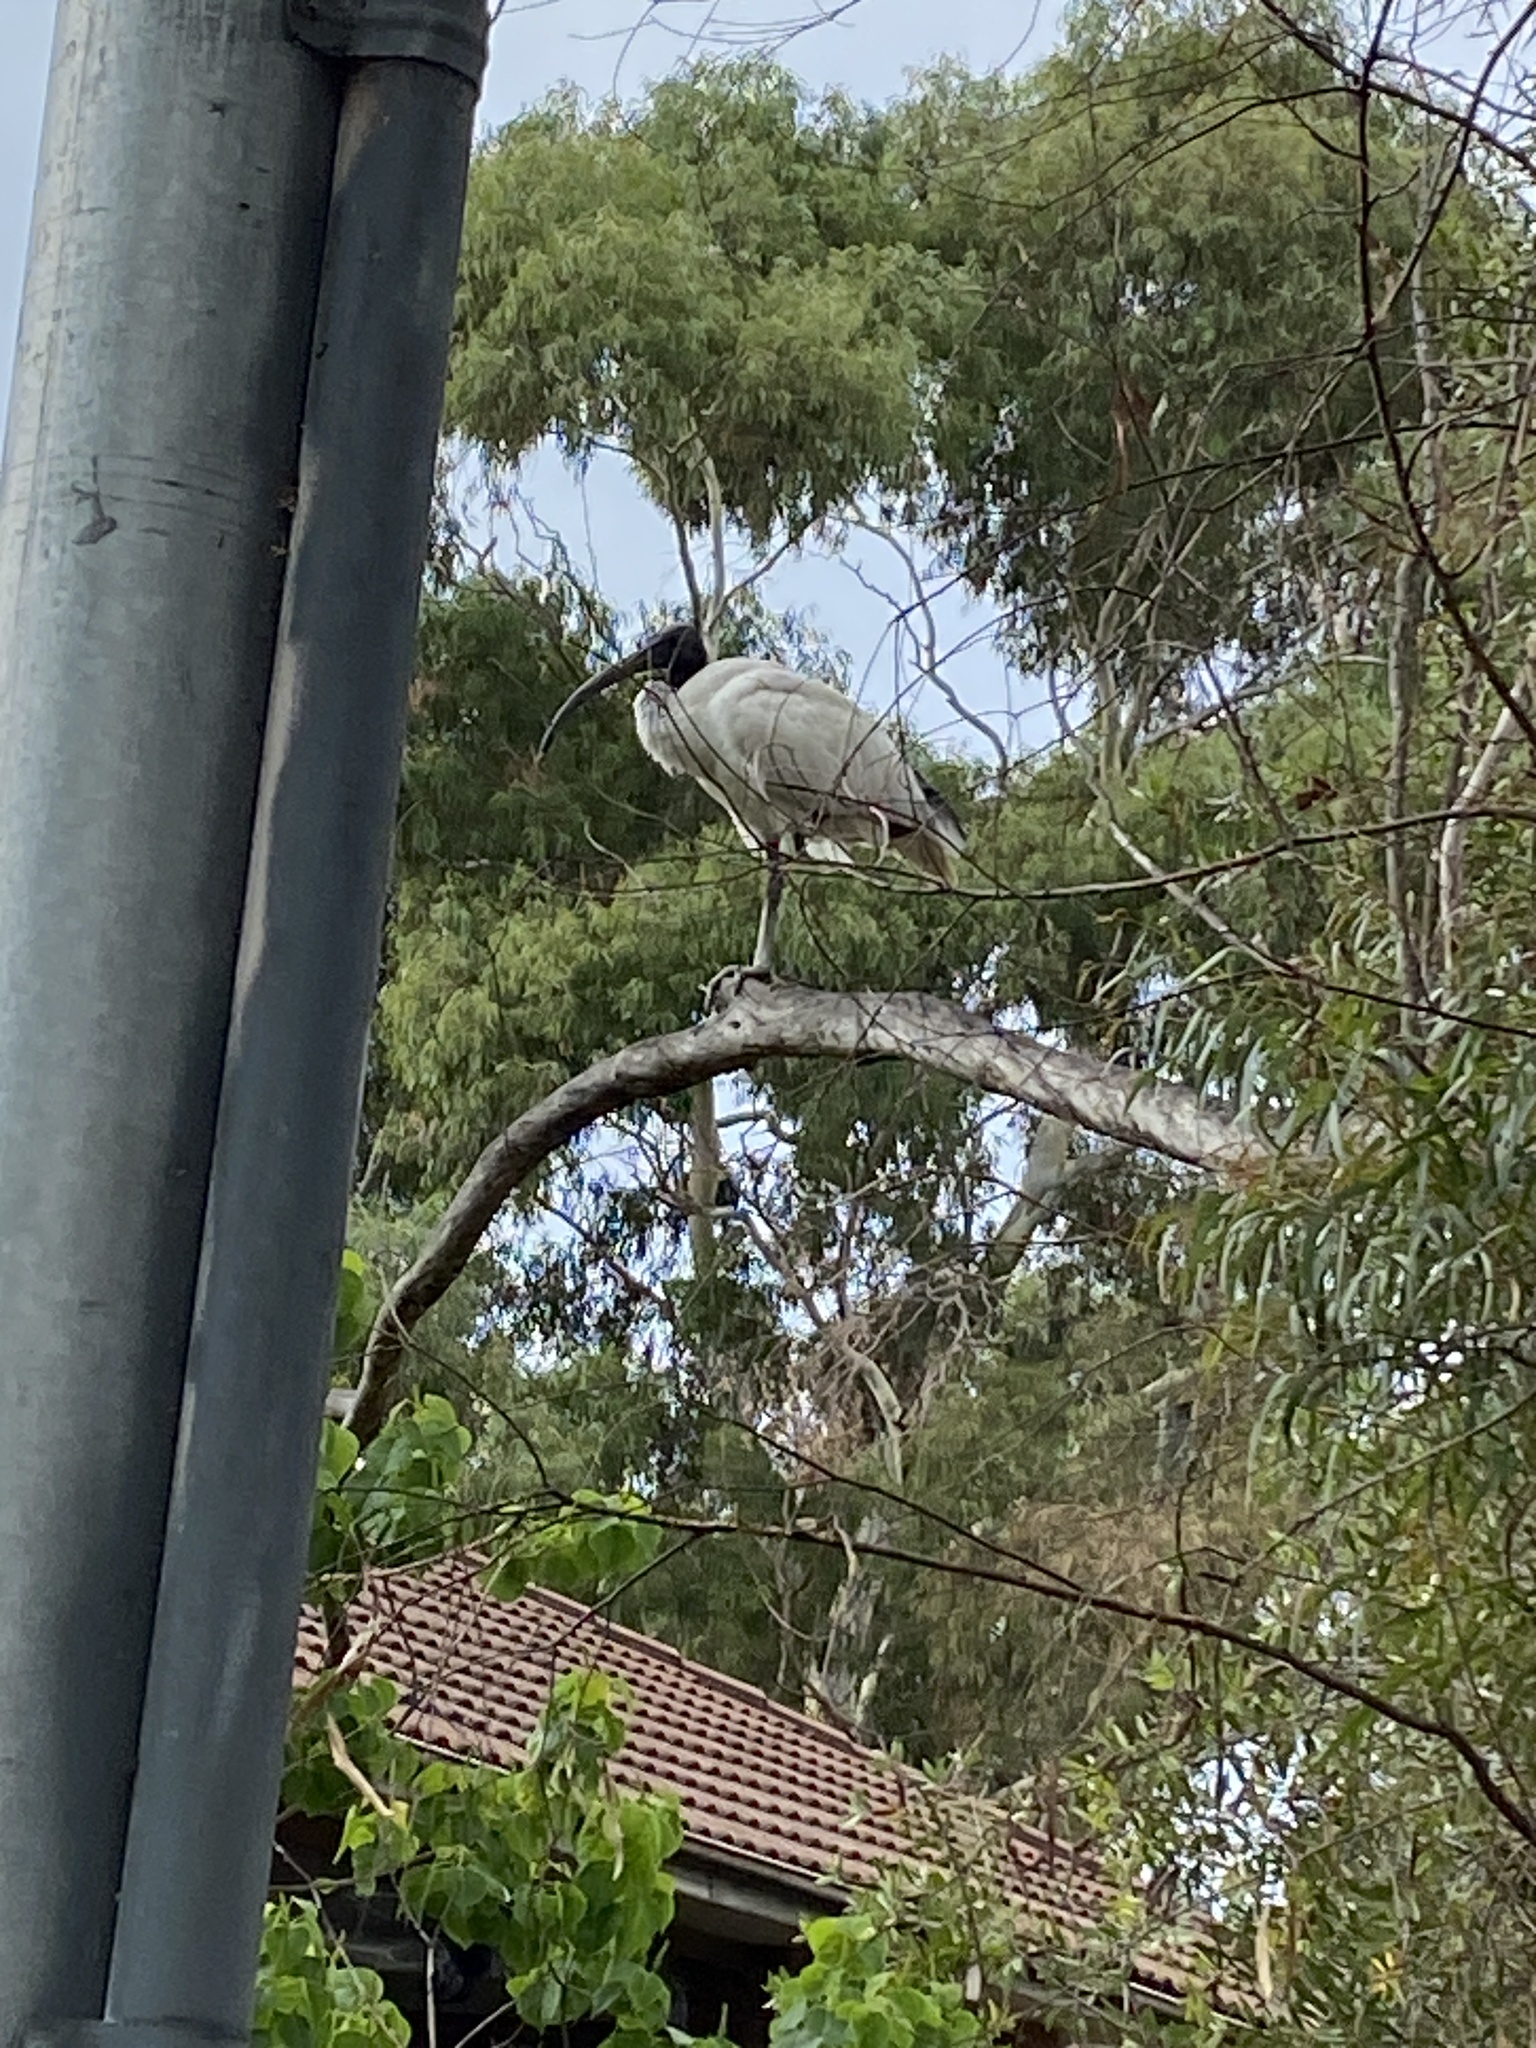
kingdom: Animalia
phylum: Chordata
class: Aves
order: Pelecaniformes
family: Threskiornithidae
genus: Threskiornis
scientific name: Threskiornis molucca
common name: Australian white ibis
